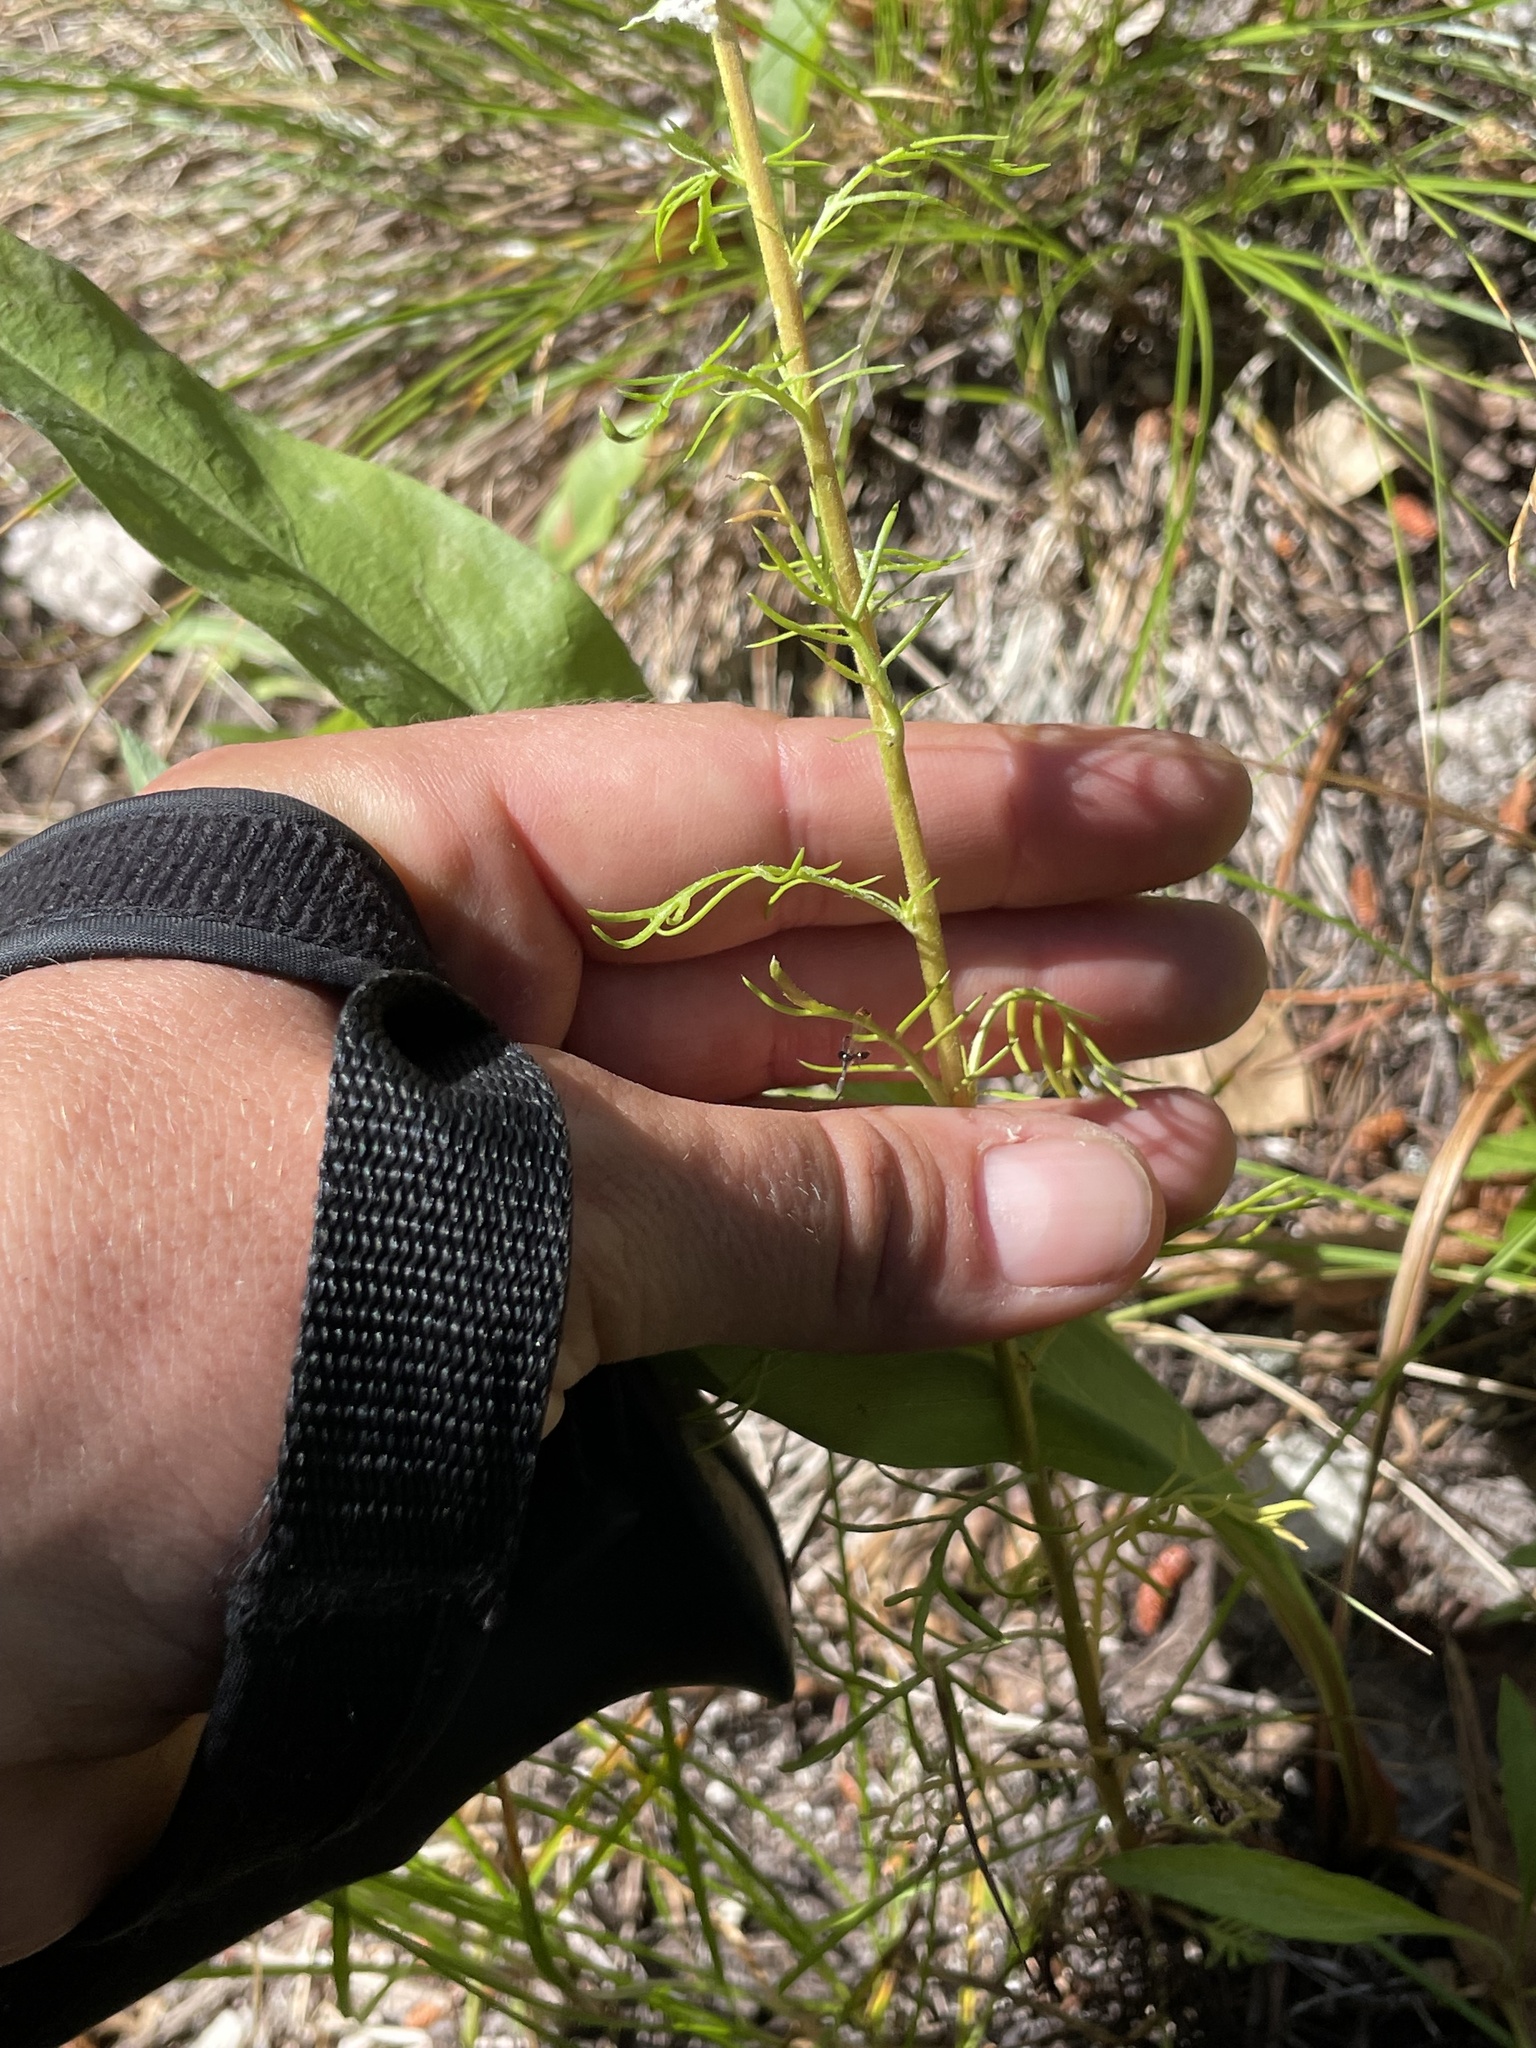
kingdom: Plantae
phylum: Tracheophyta
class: Magnoliopsida
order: Ericales
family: Polemoniaceae
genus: Ipomopsis
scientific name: Ipomopsis aggregata
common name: Scarlet gilia
